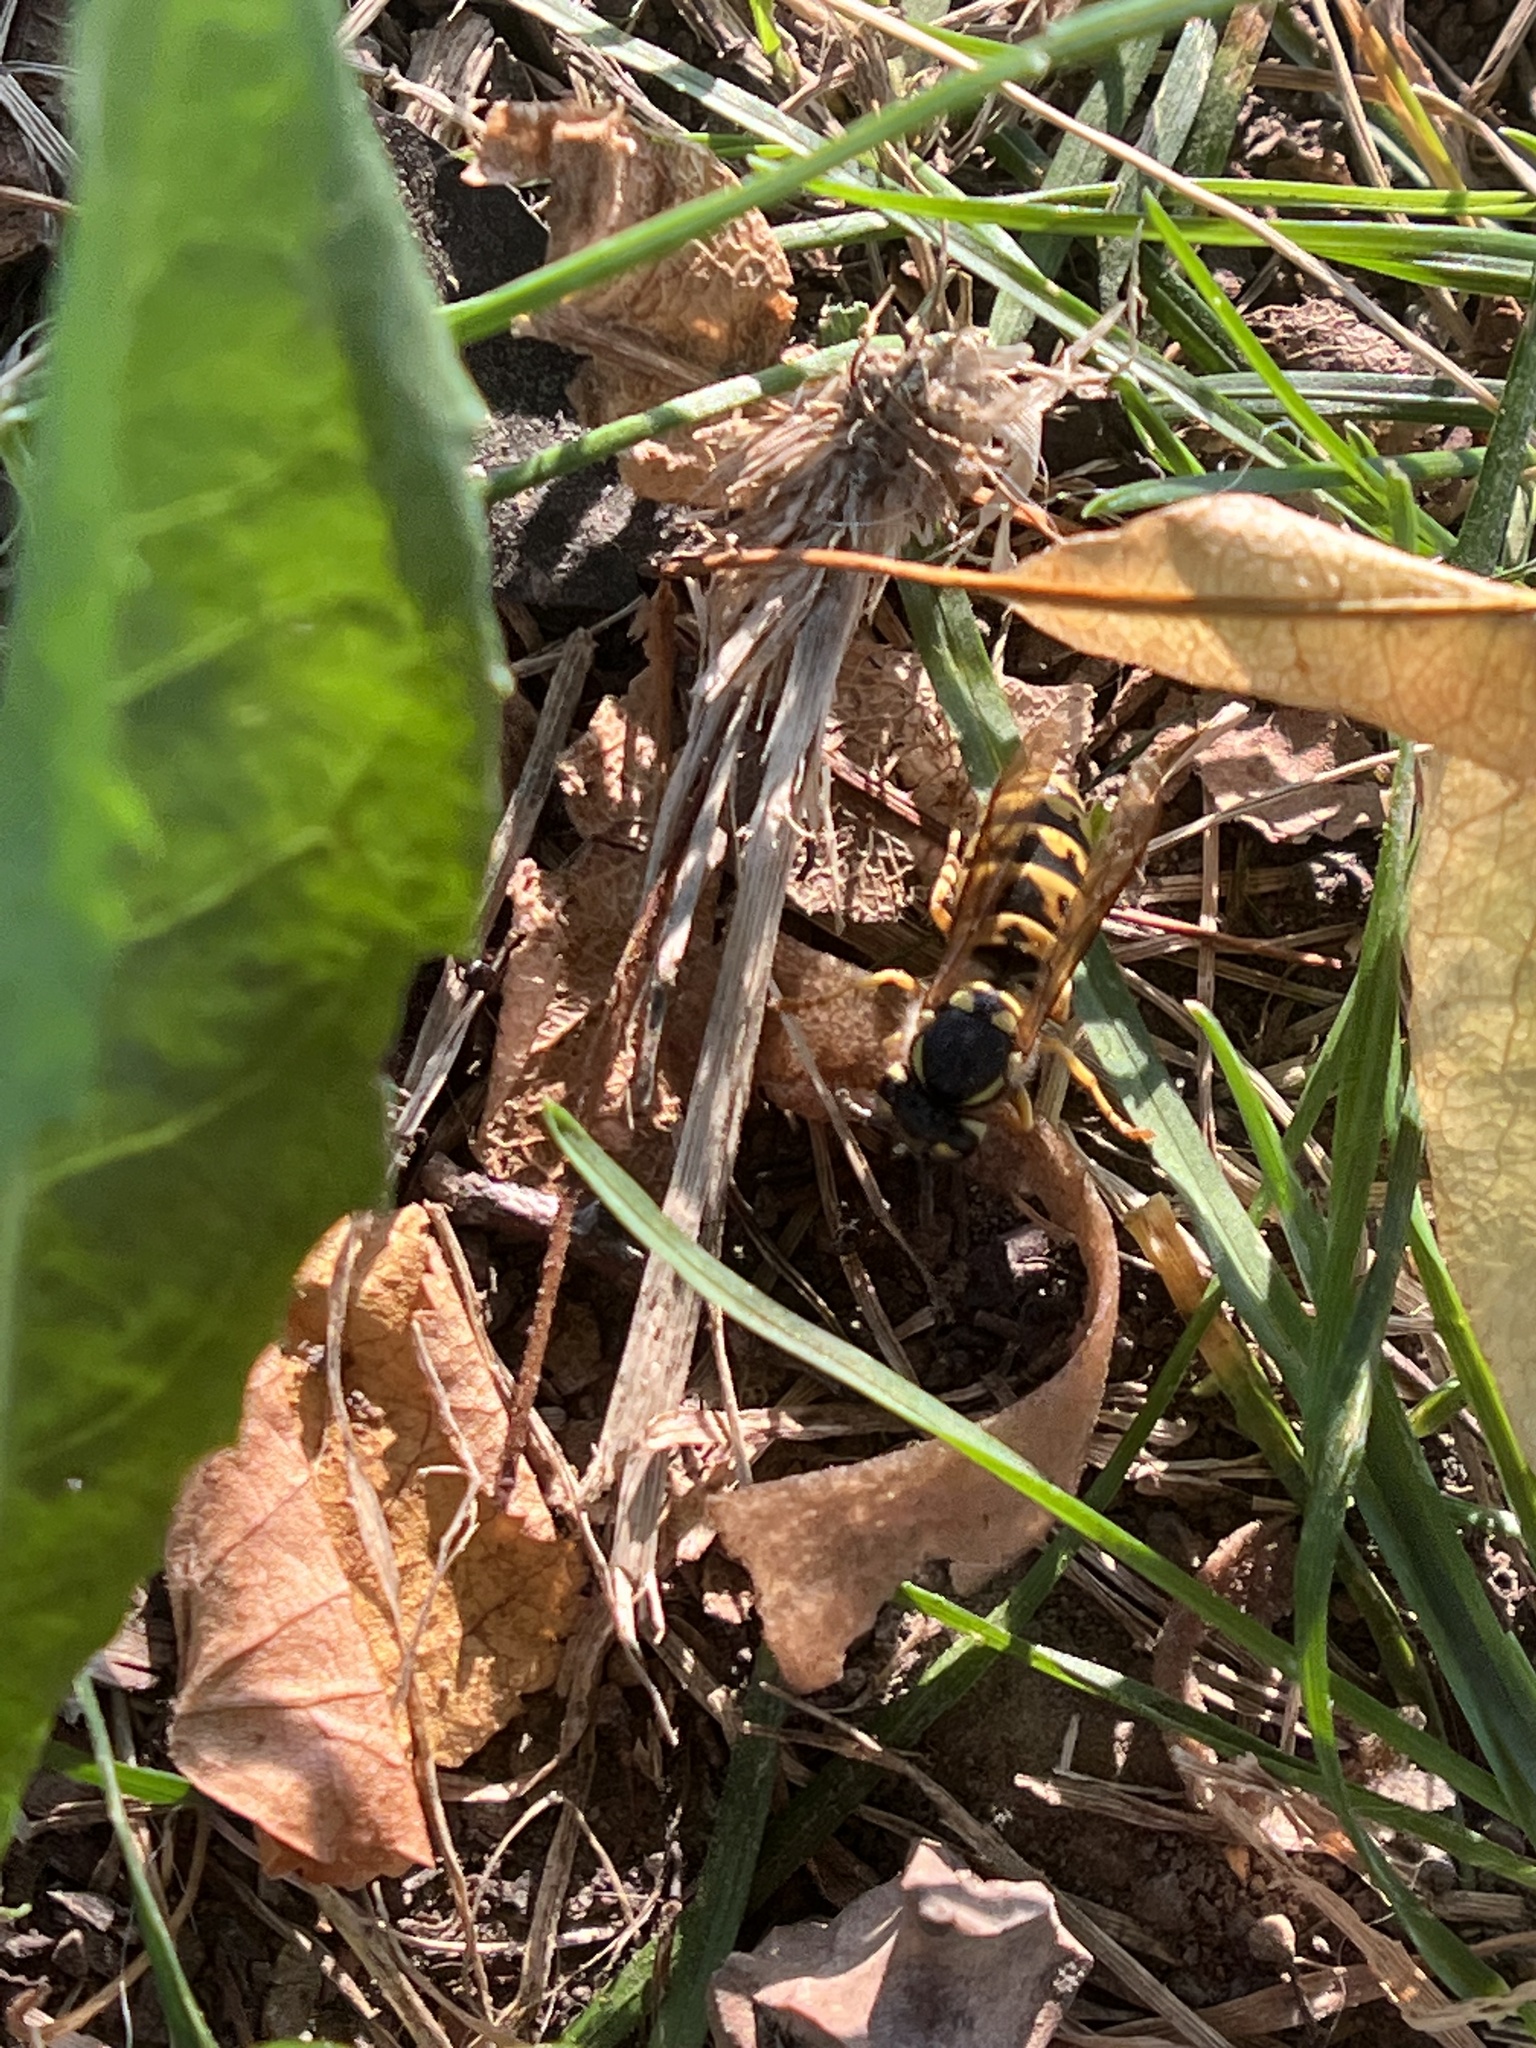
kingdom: Animalia
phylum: Arthropoda
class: Insecta
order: Hymenoptera
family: Vespidae
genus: Vespula
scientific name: Vespula germanica
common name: German wasp
